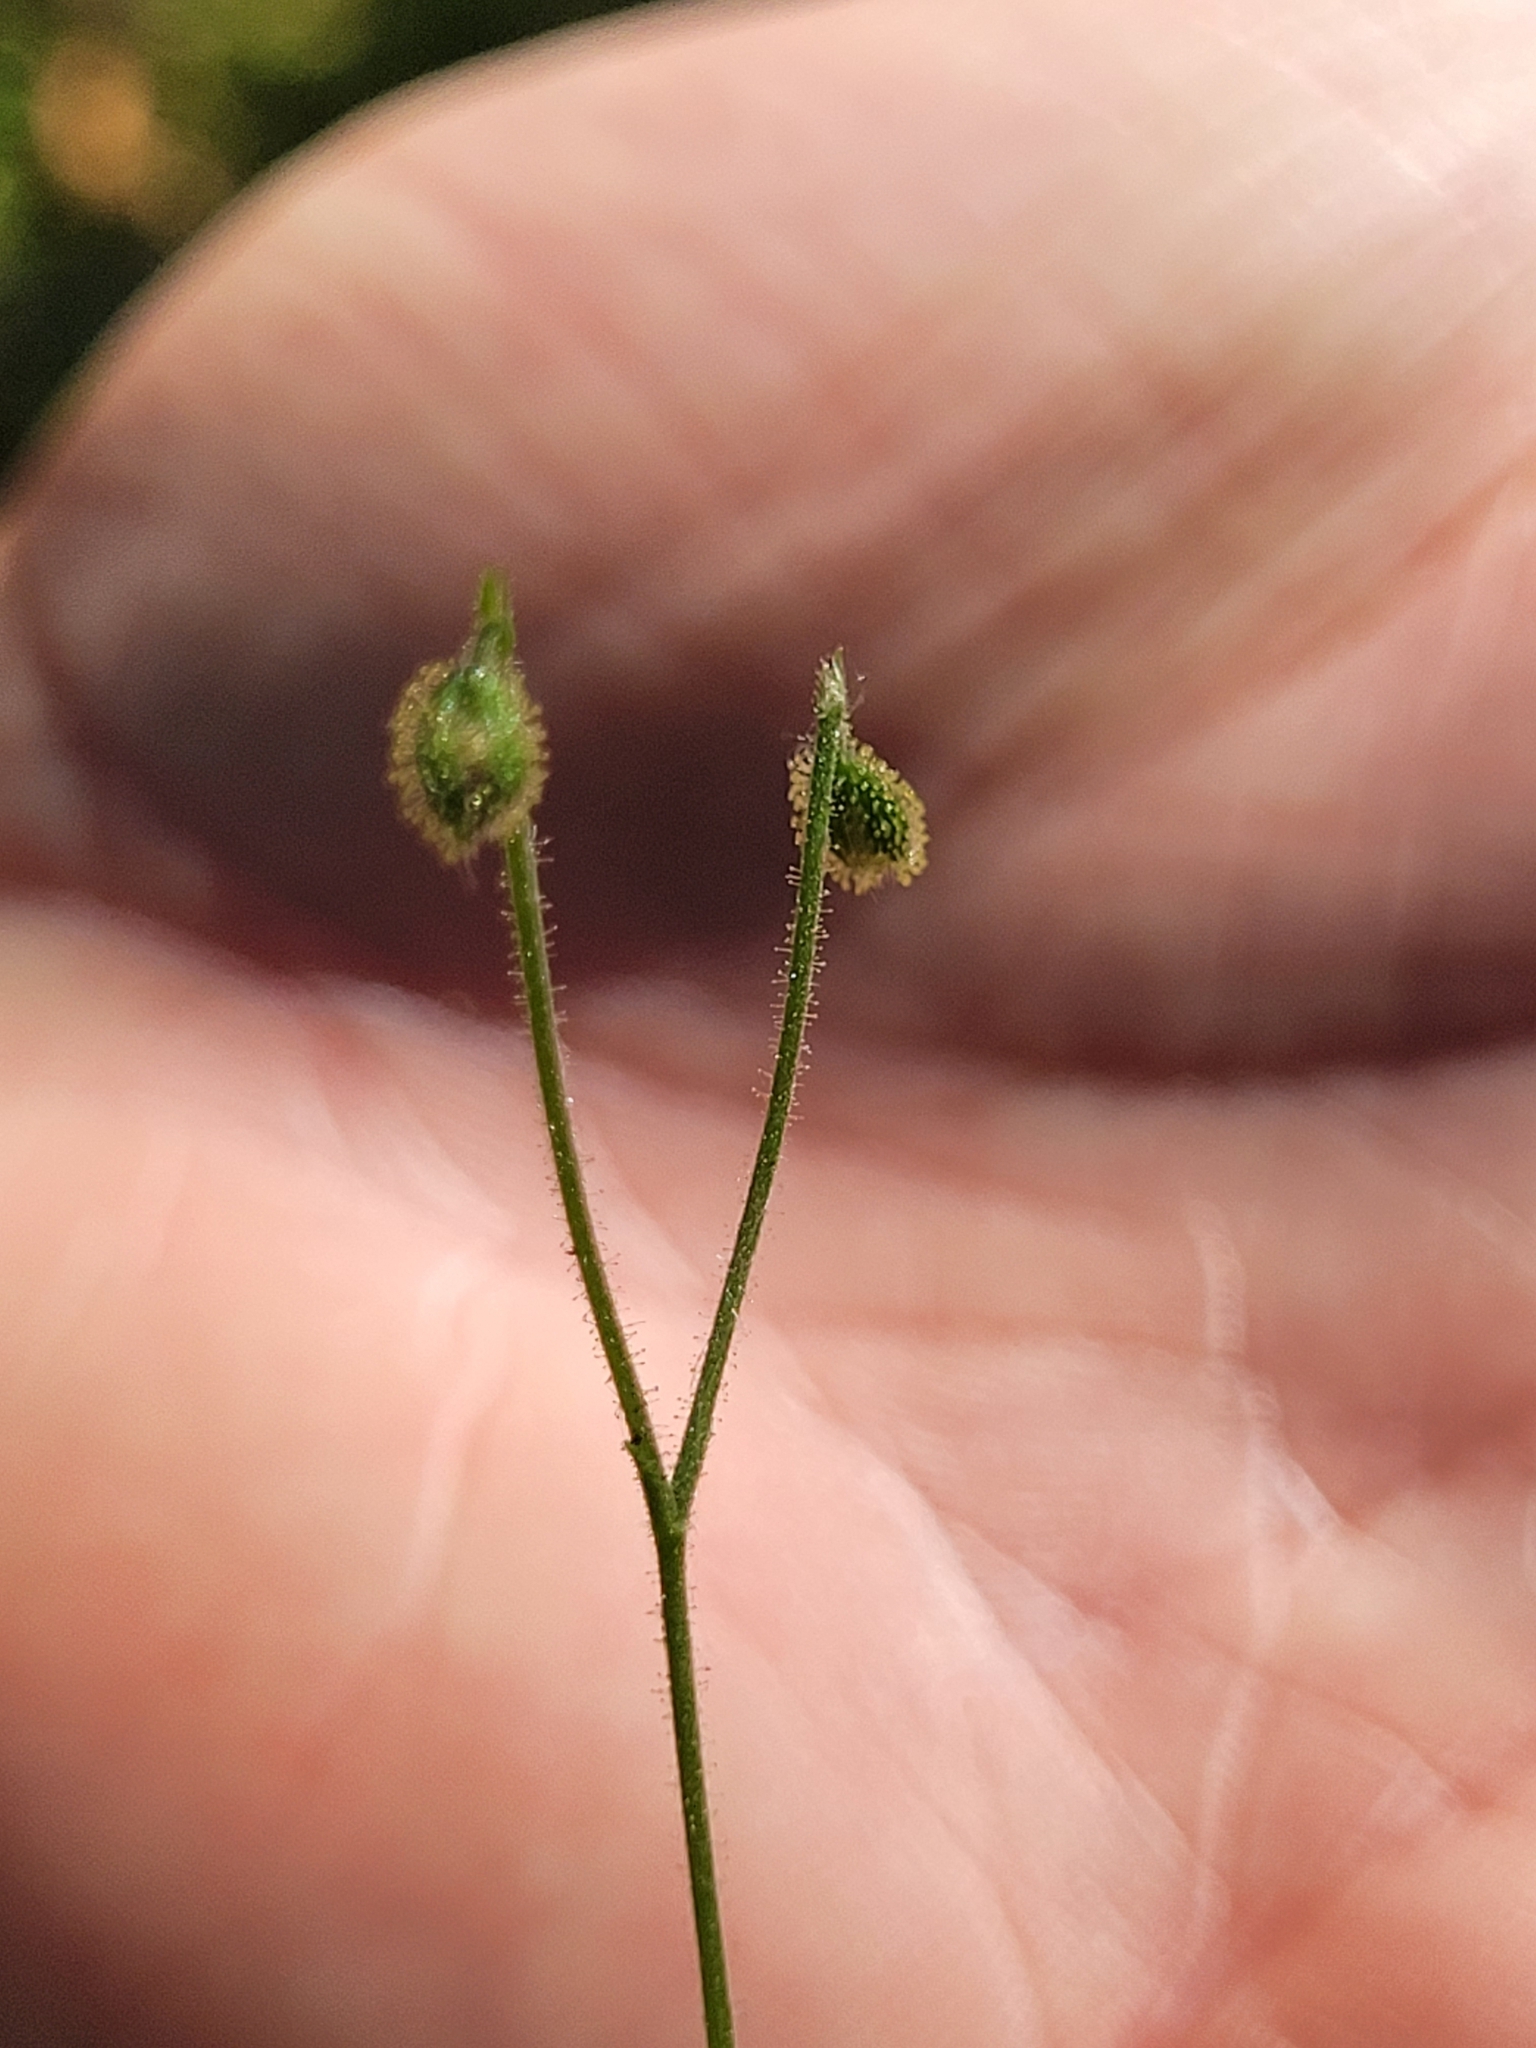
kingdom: Plantae
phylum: Tracheophyta
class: Magnoliopsida
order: Dipsacales
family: Caprifoliaceae
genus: Linnaea
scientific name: Linnaea borealis
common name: Twinflower
